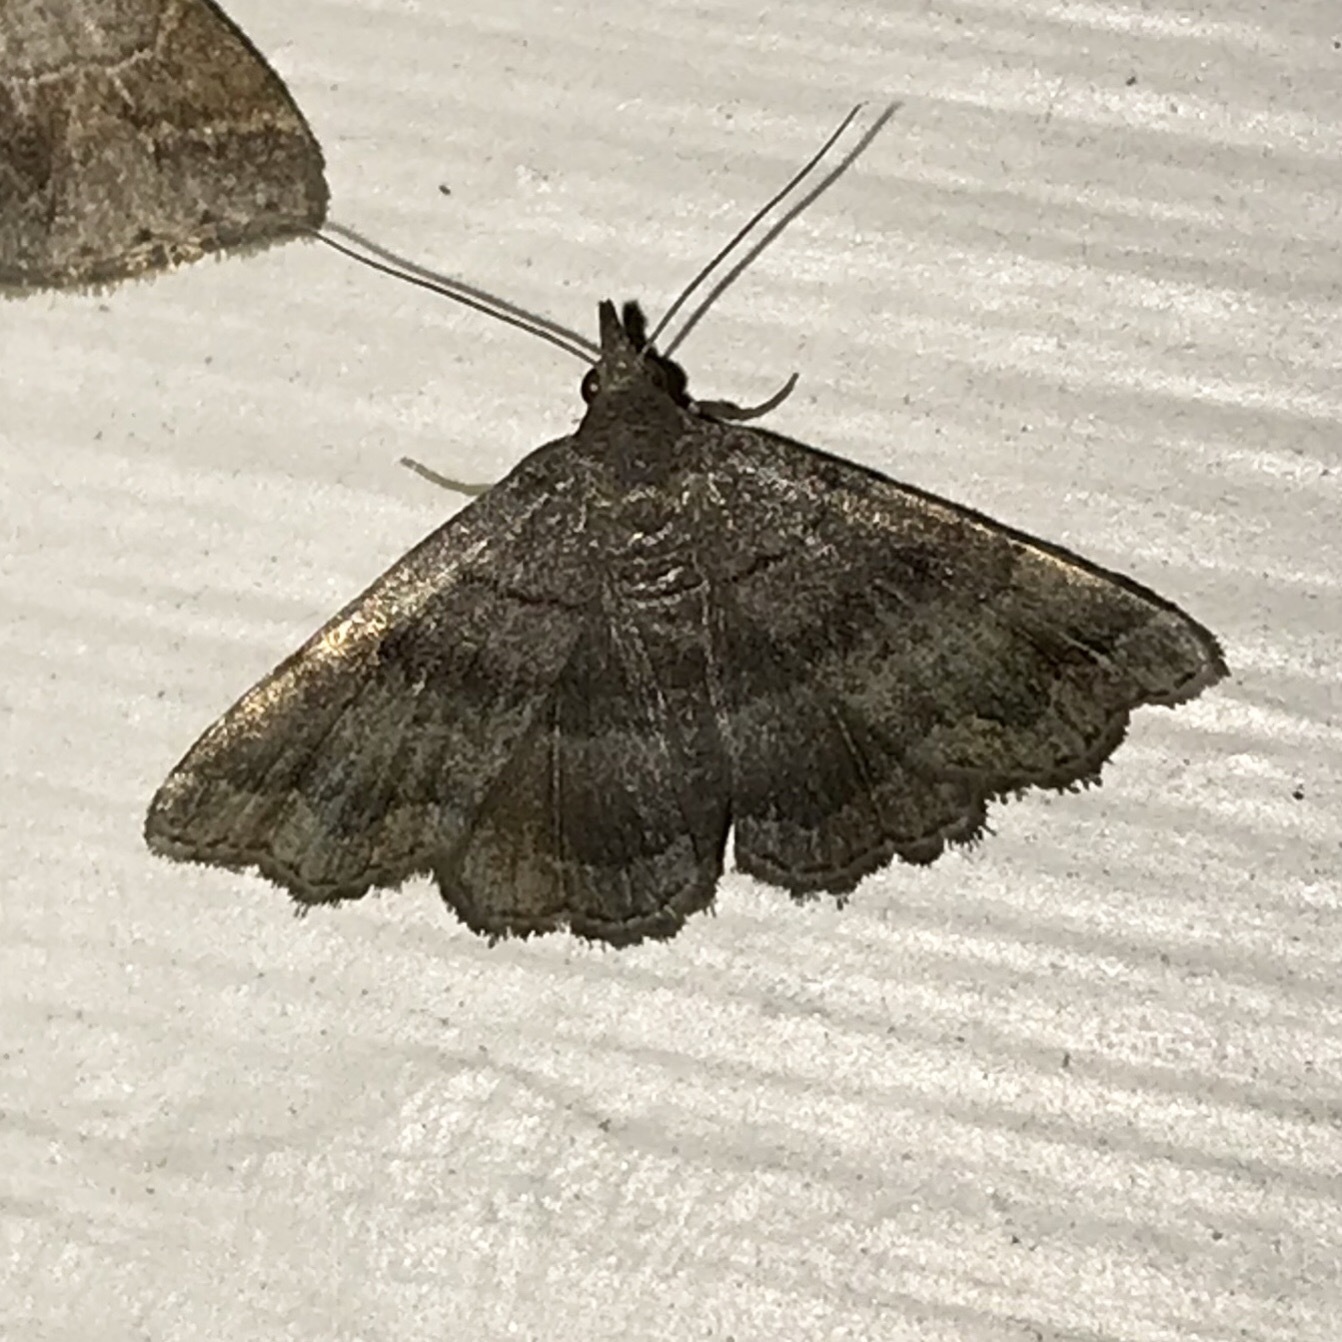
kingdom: Animalia
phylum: Arthropoda
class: Insecta
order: Lepidoptera
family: Erebidae
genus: Phalaenostola
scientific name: Phalaenostola larentioides
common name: Black-banded owlet
